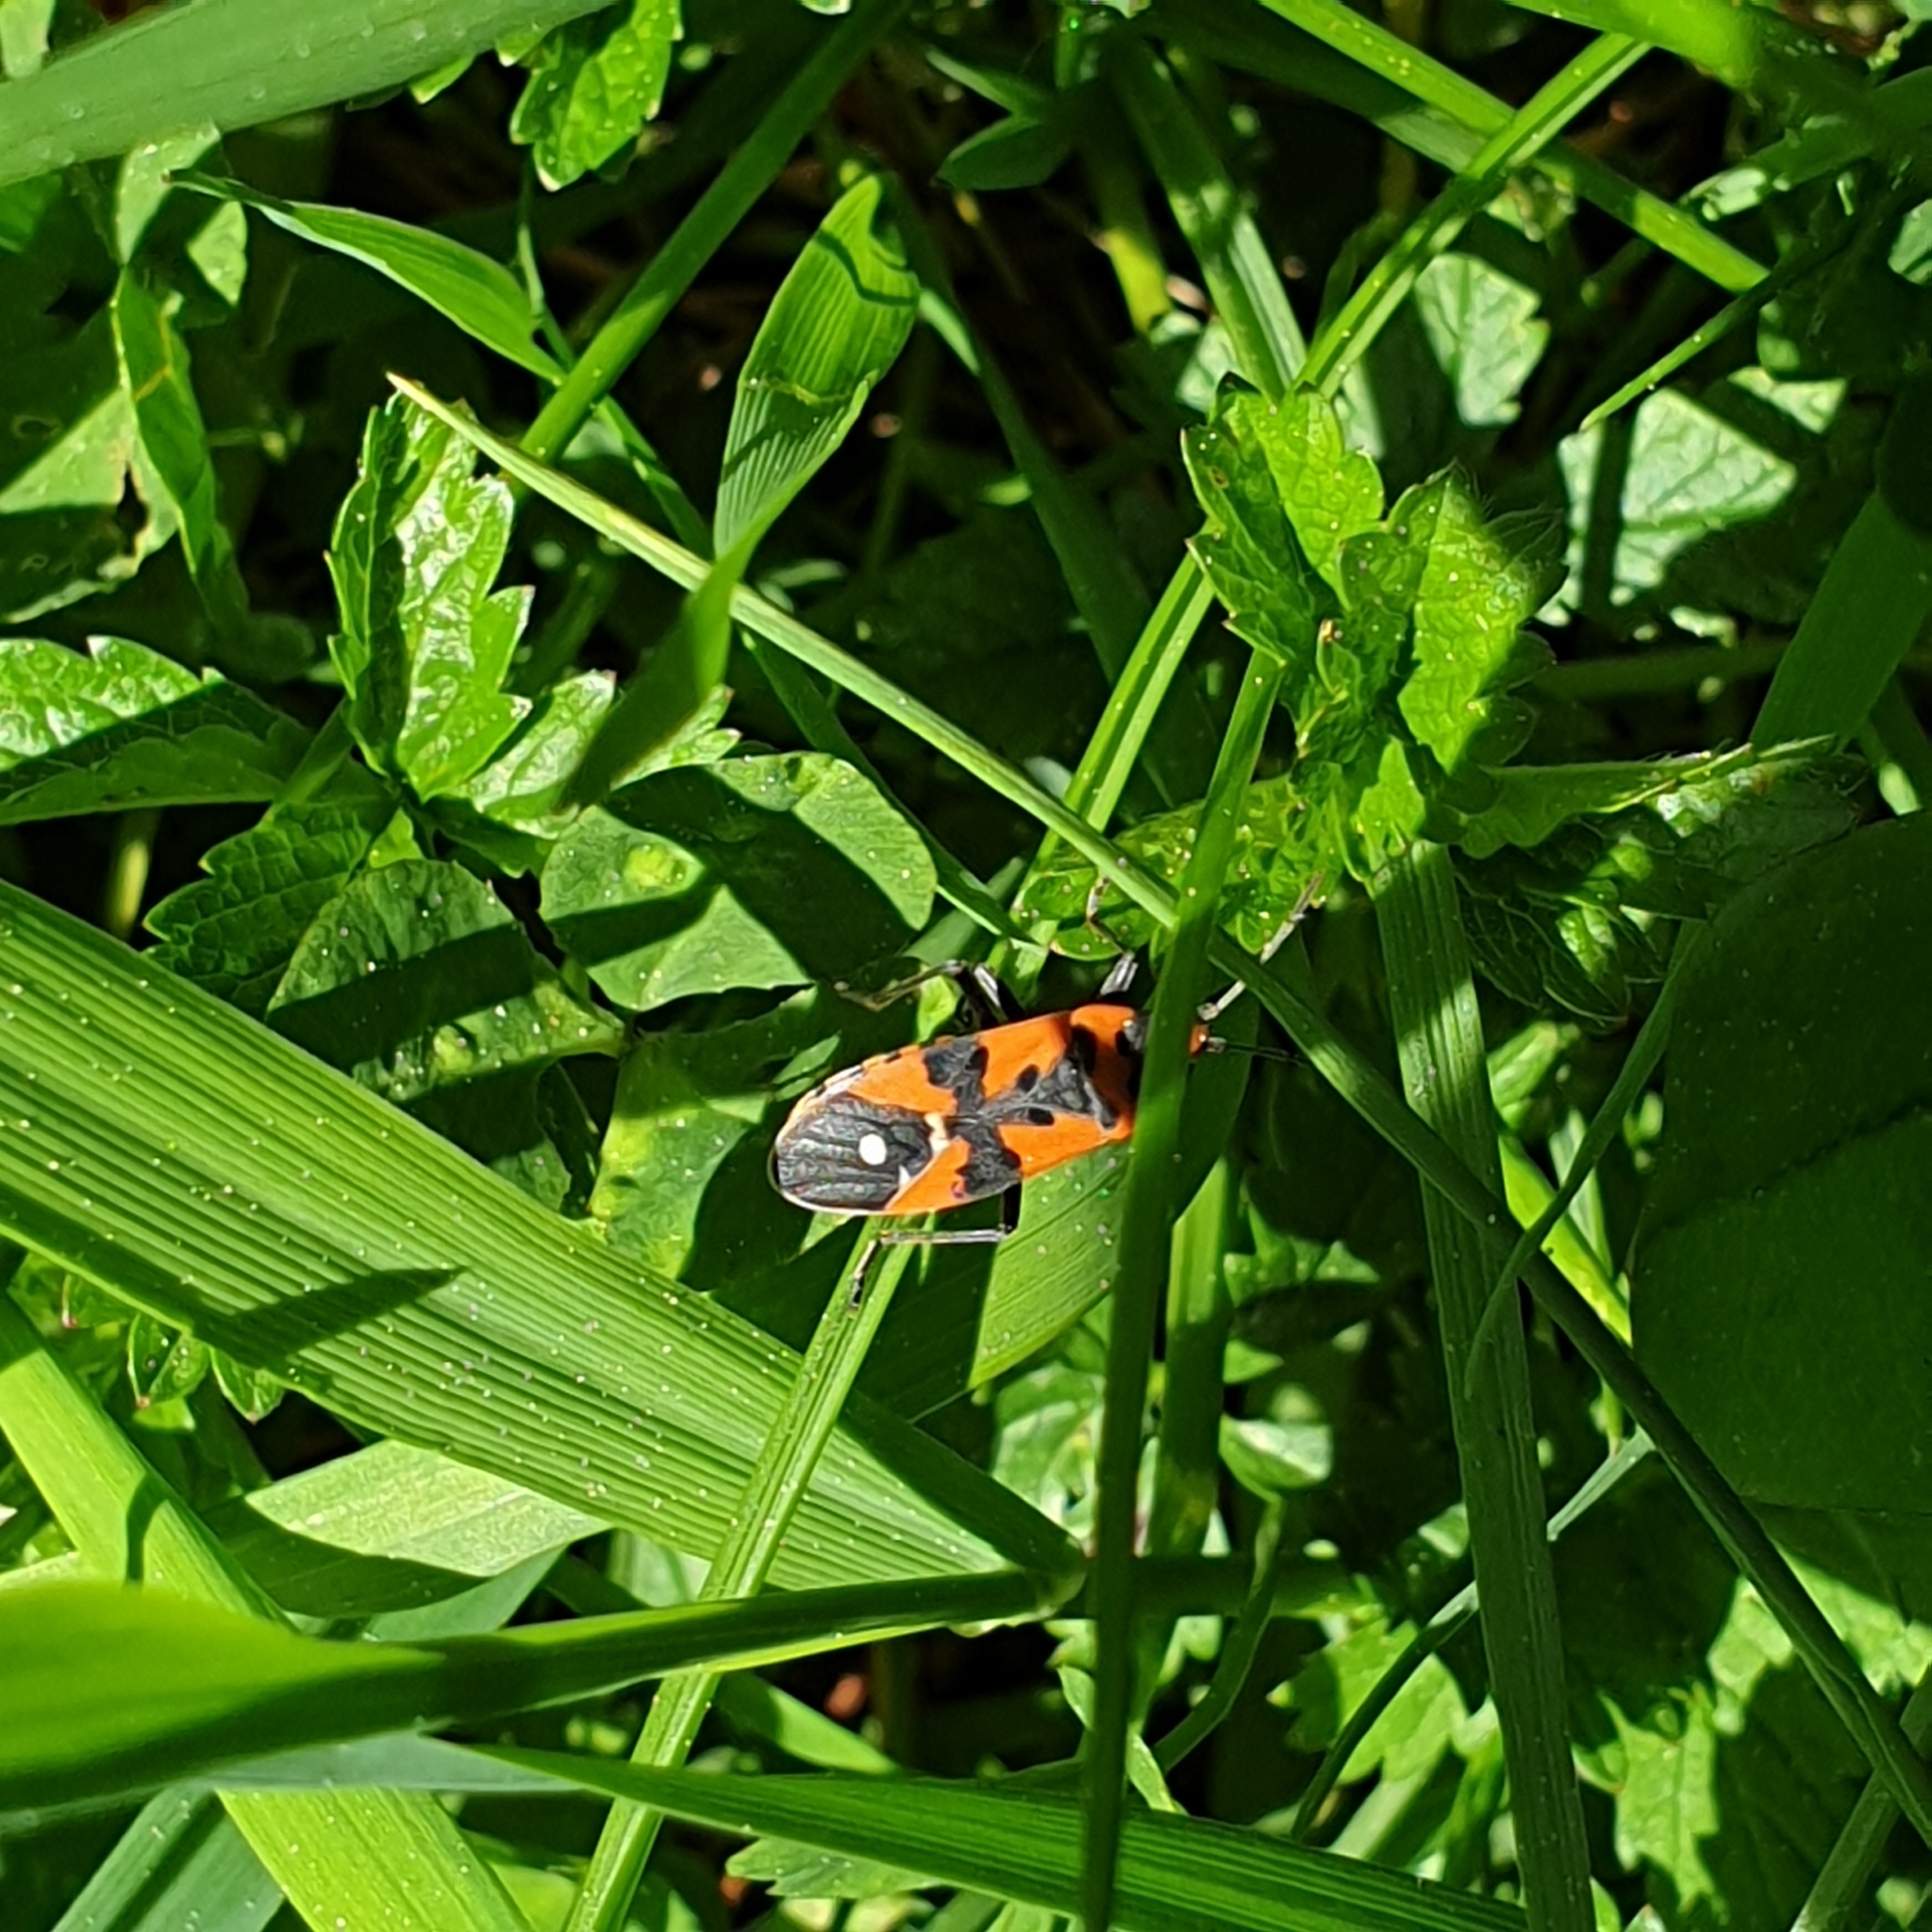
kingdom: Animalia
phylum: Arthropoda
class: Insecta
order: Hemiptera
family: Lygaeidae
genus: Lygaeus
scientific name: Lygaeus equestris
